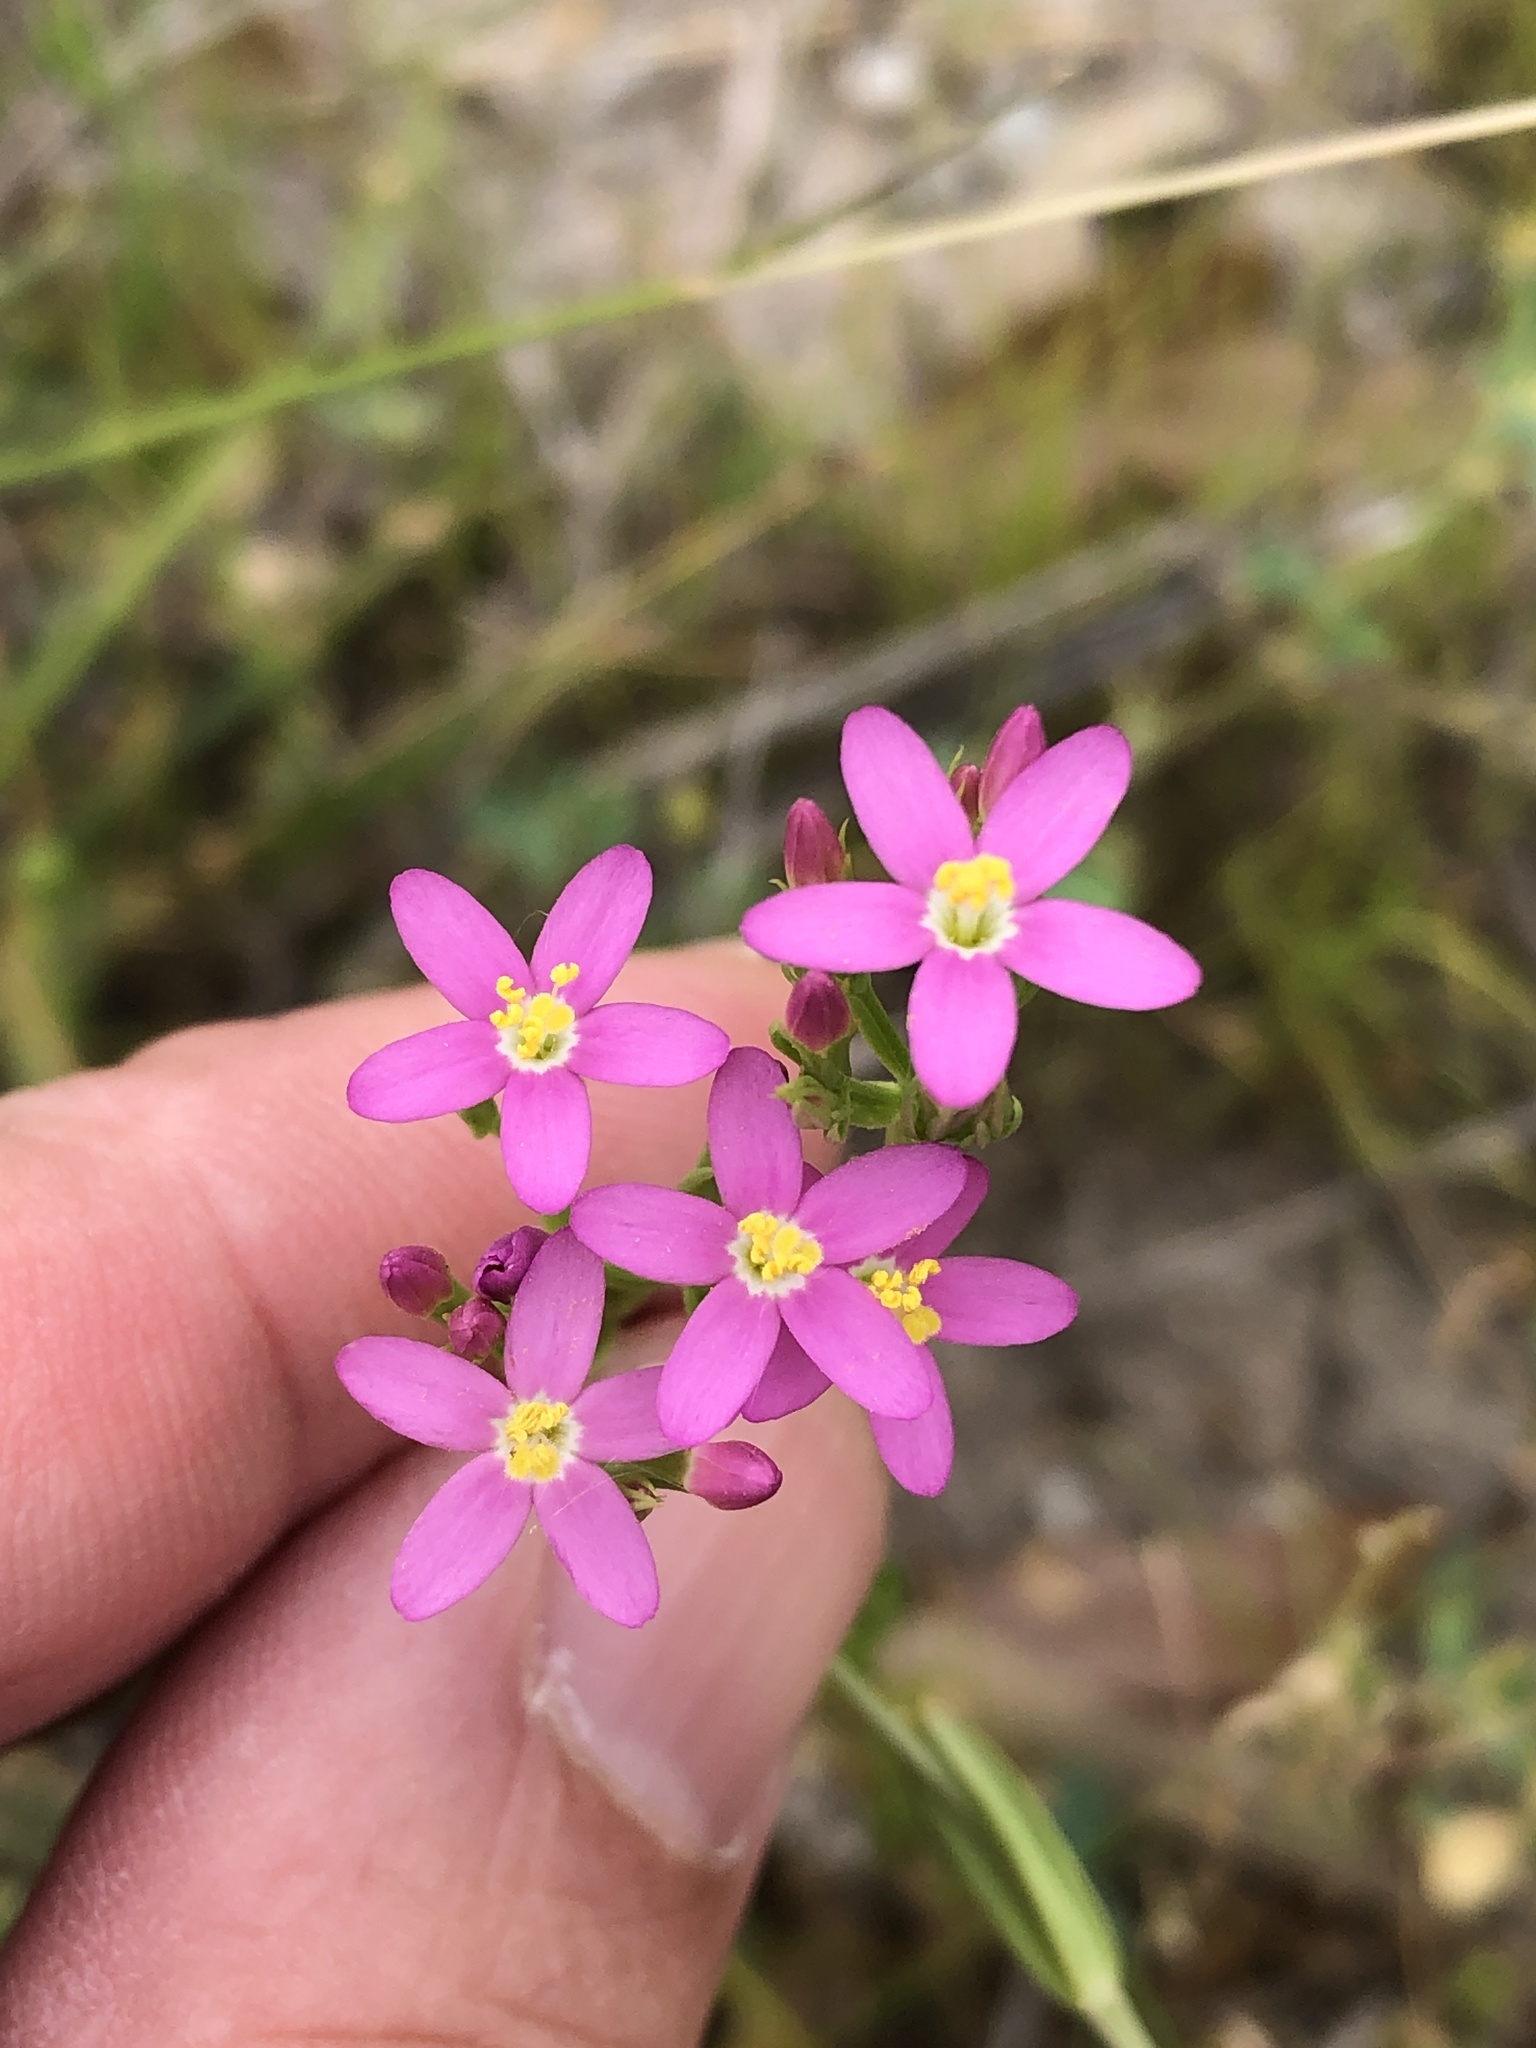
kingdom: Plantae
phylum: Tracheophyta
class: Magnoliopsida
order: Gentianales
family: Gentianaceae
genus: Centaurium
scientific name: Centaurium tenuiflorum
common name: Slender centaury
